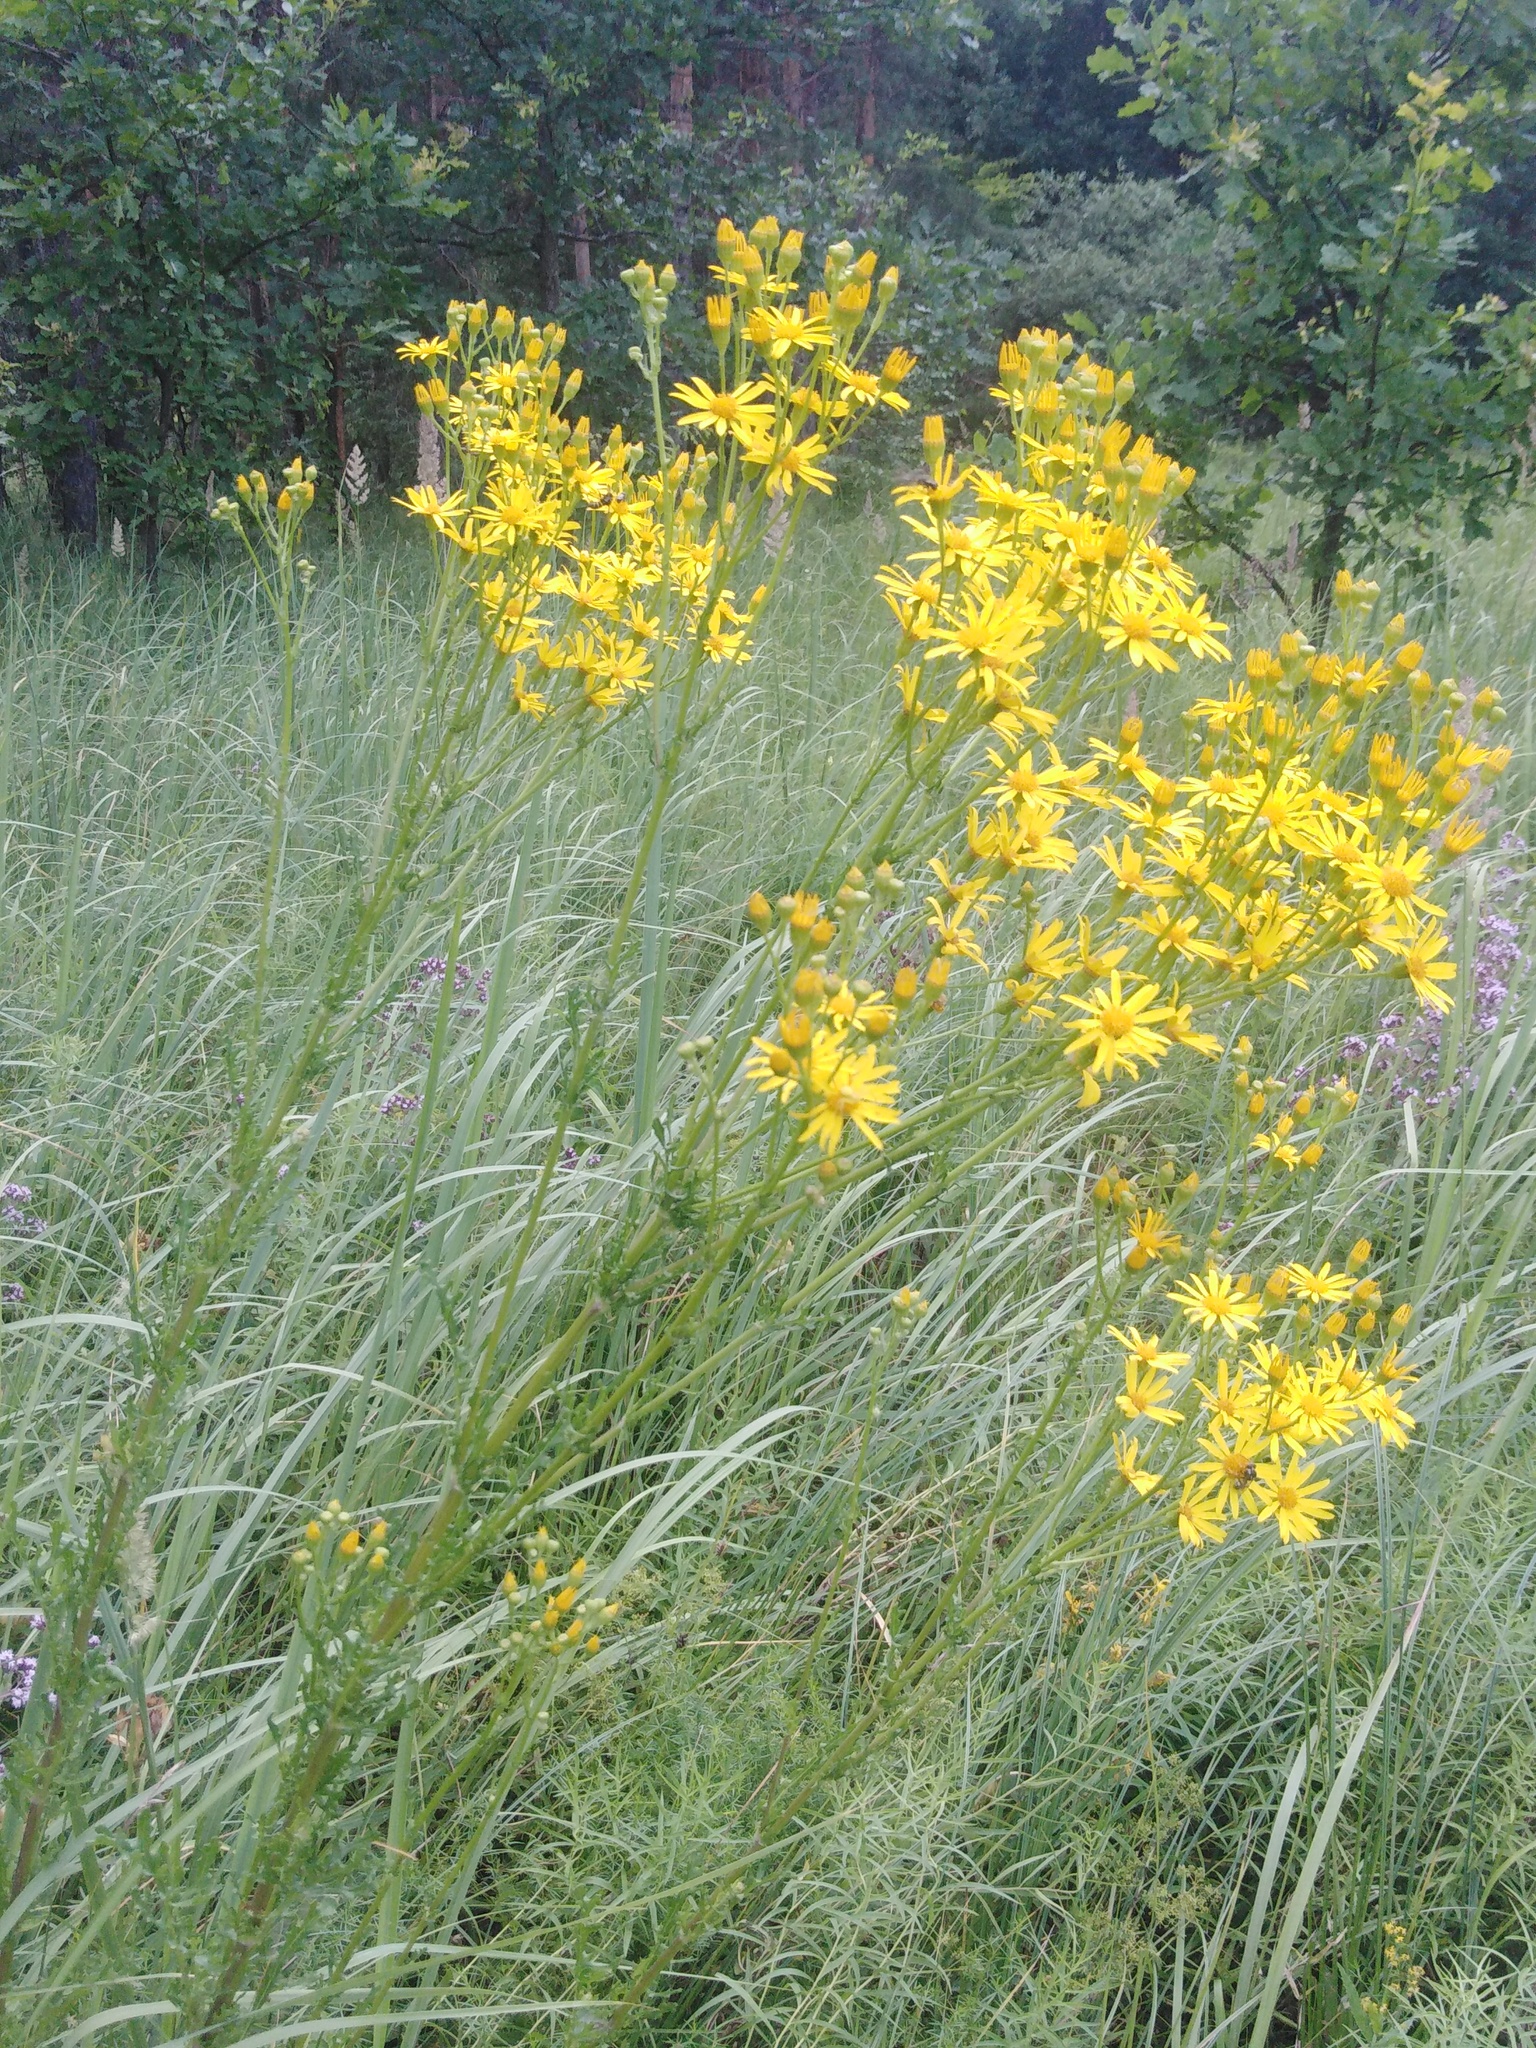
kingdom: Plantae
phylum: Tracheophyta
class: Magnoliopsida
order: Asterales
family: Asteraceae
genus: Jacobaea
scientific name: Jacobaea vulgaris
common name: Stinking willie
